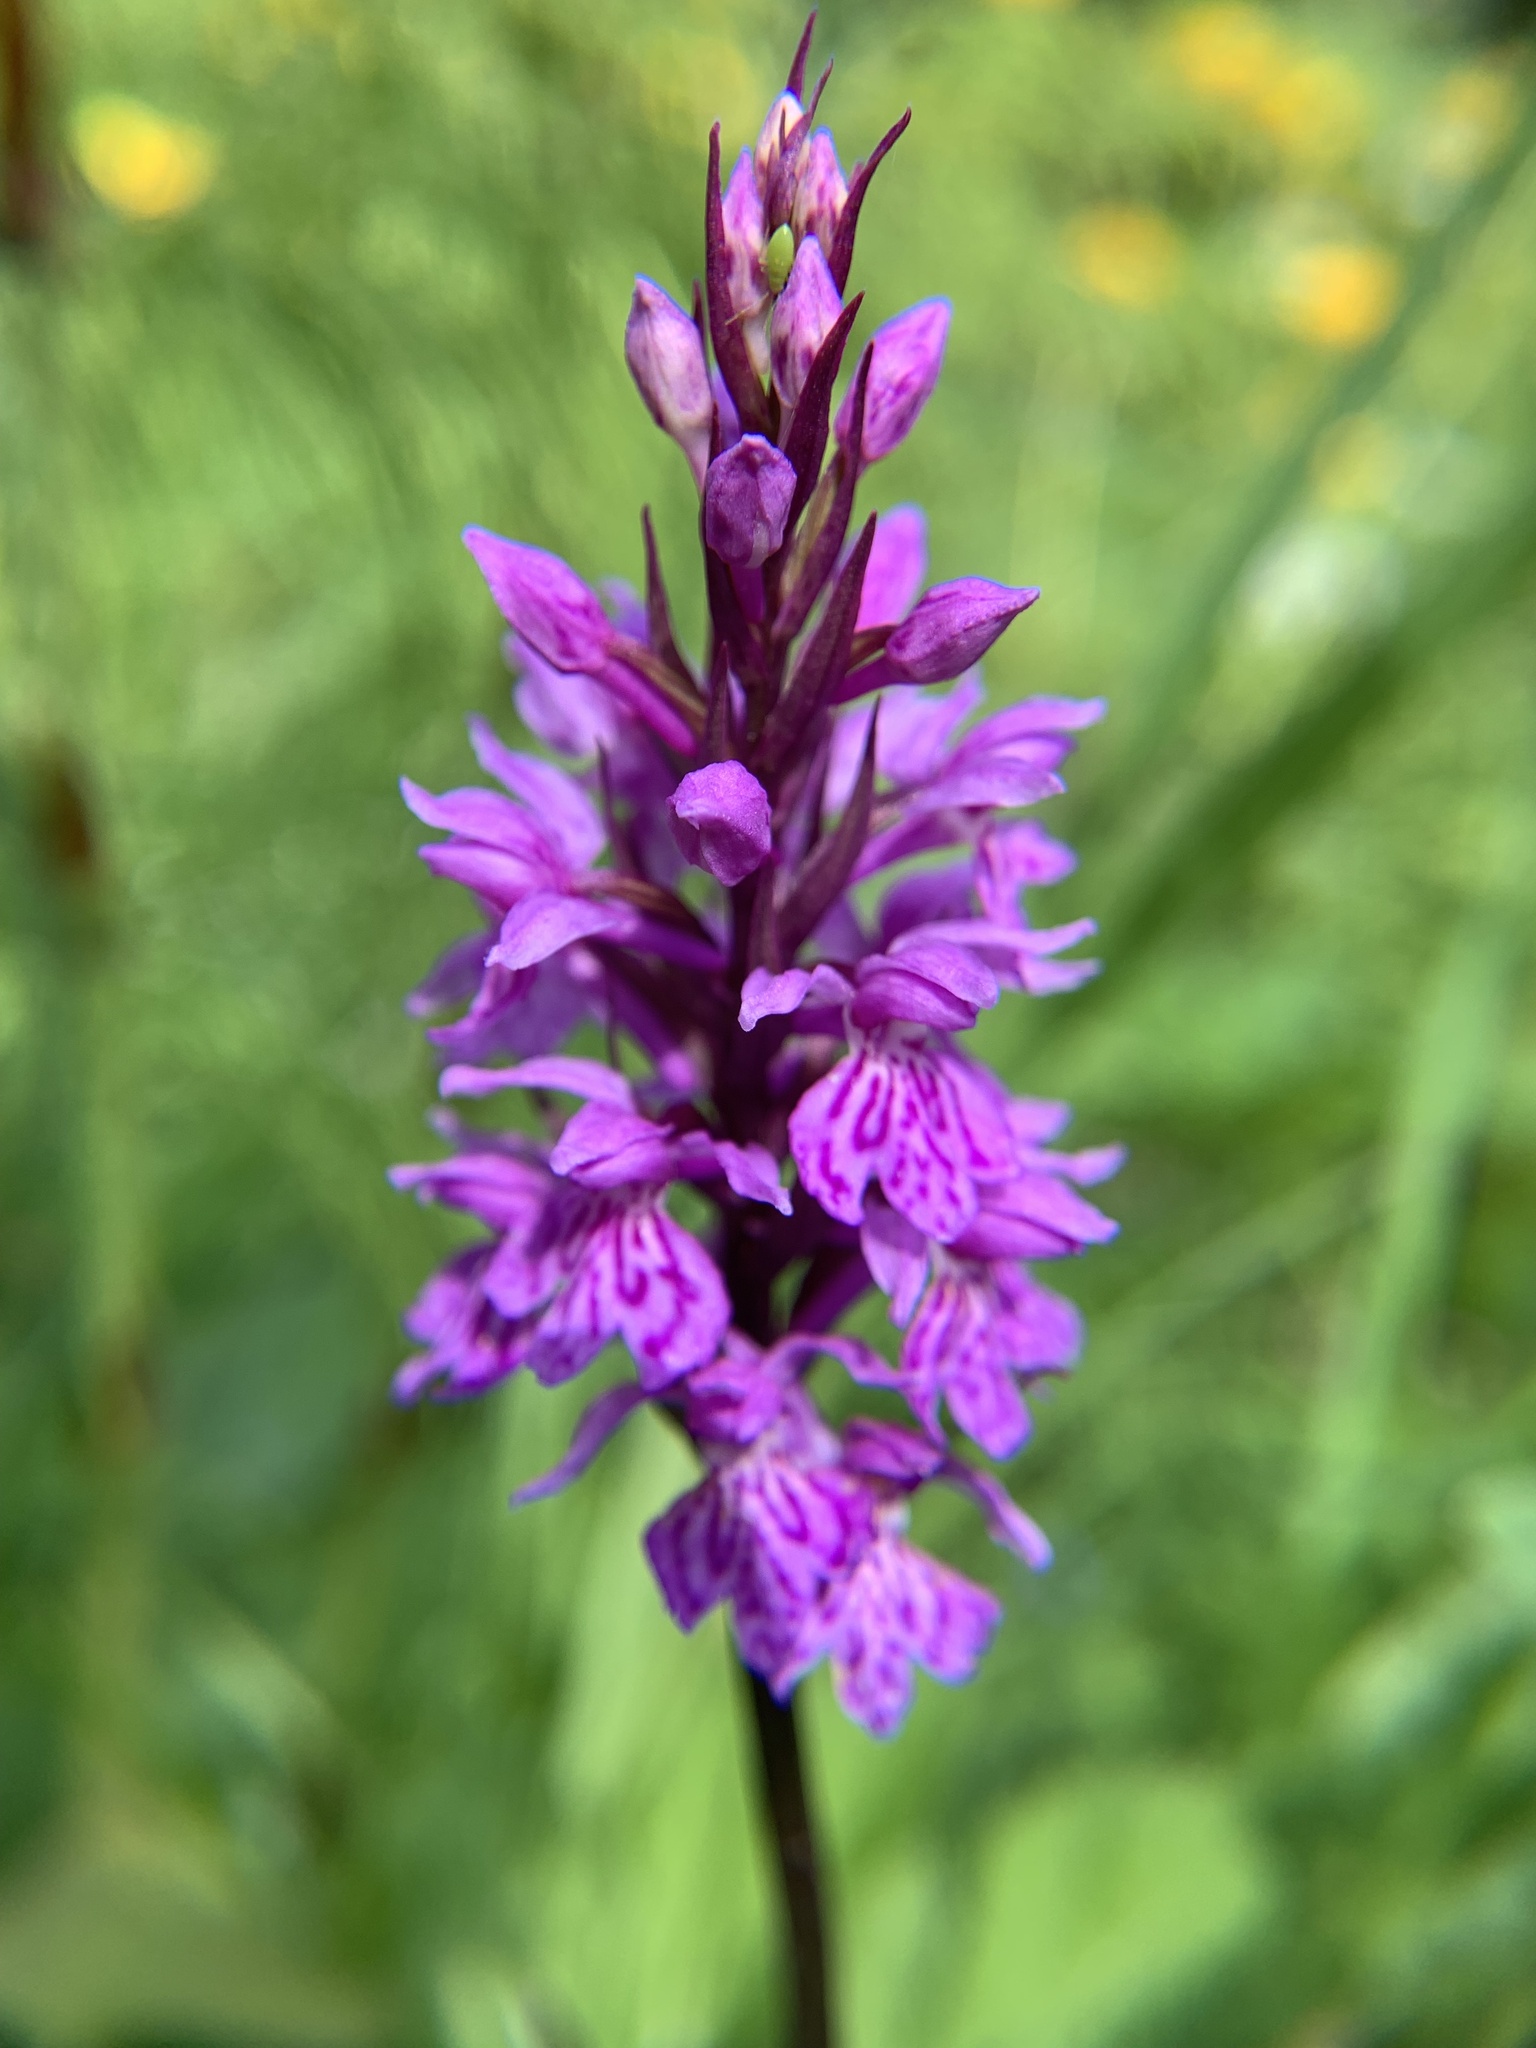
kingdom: Plantae
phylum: Tracheophyta
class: Liliopsida
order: Asparagales
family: Orchidaceae
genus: Dactylorhiza
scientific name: Dactylorhiza maculata
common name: Heath spotted-orchid
